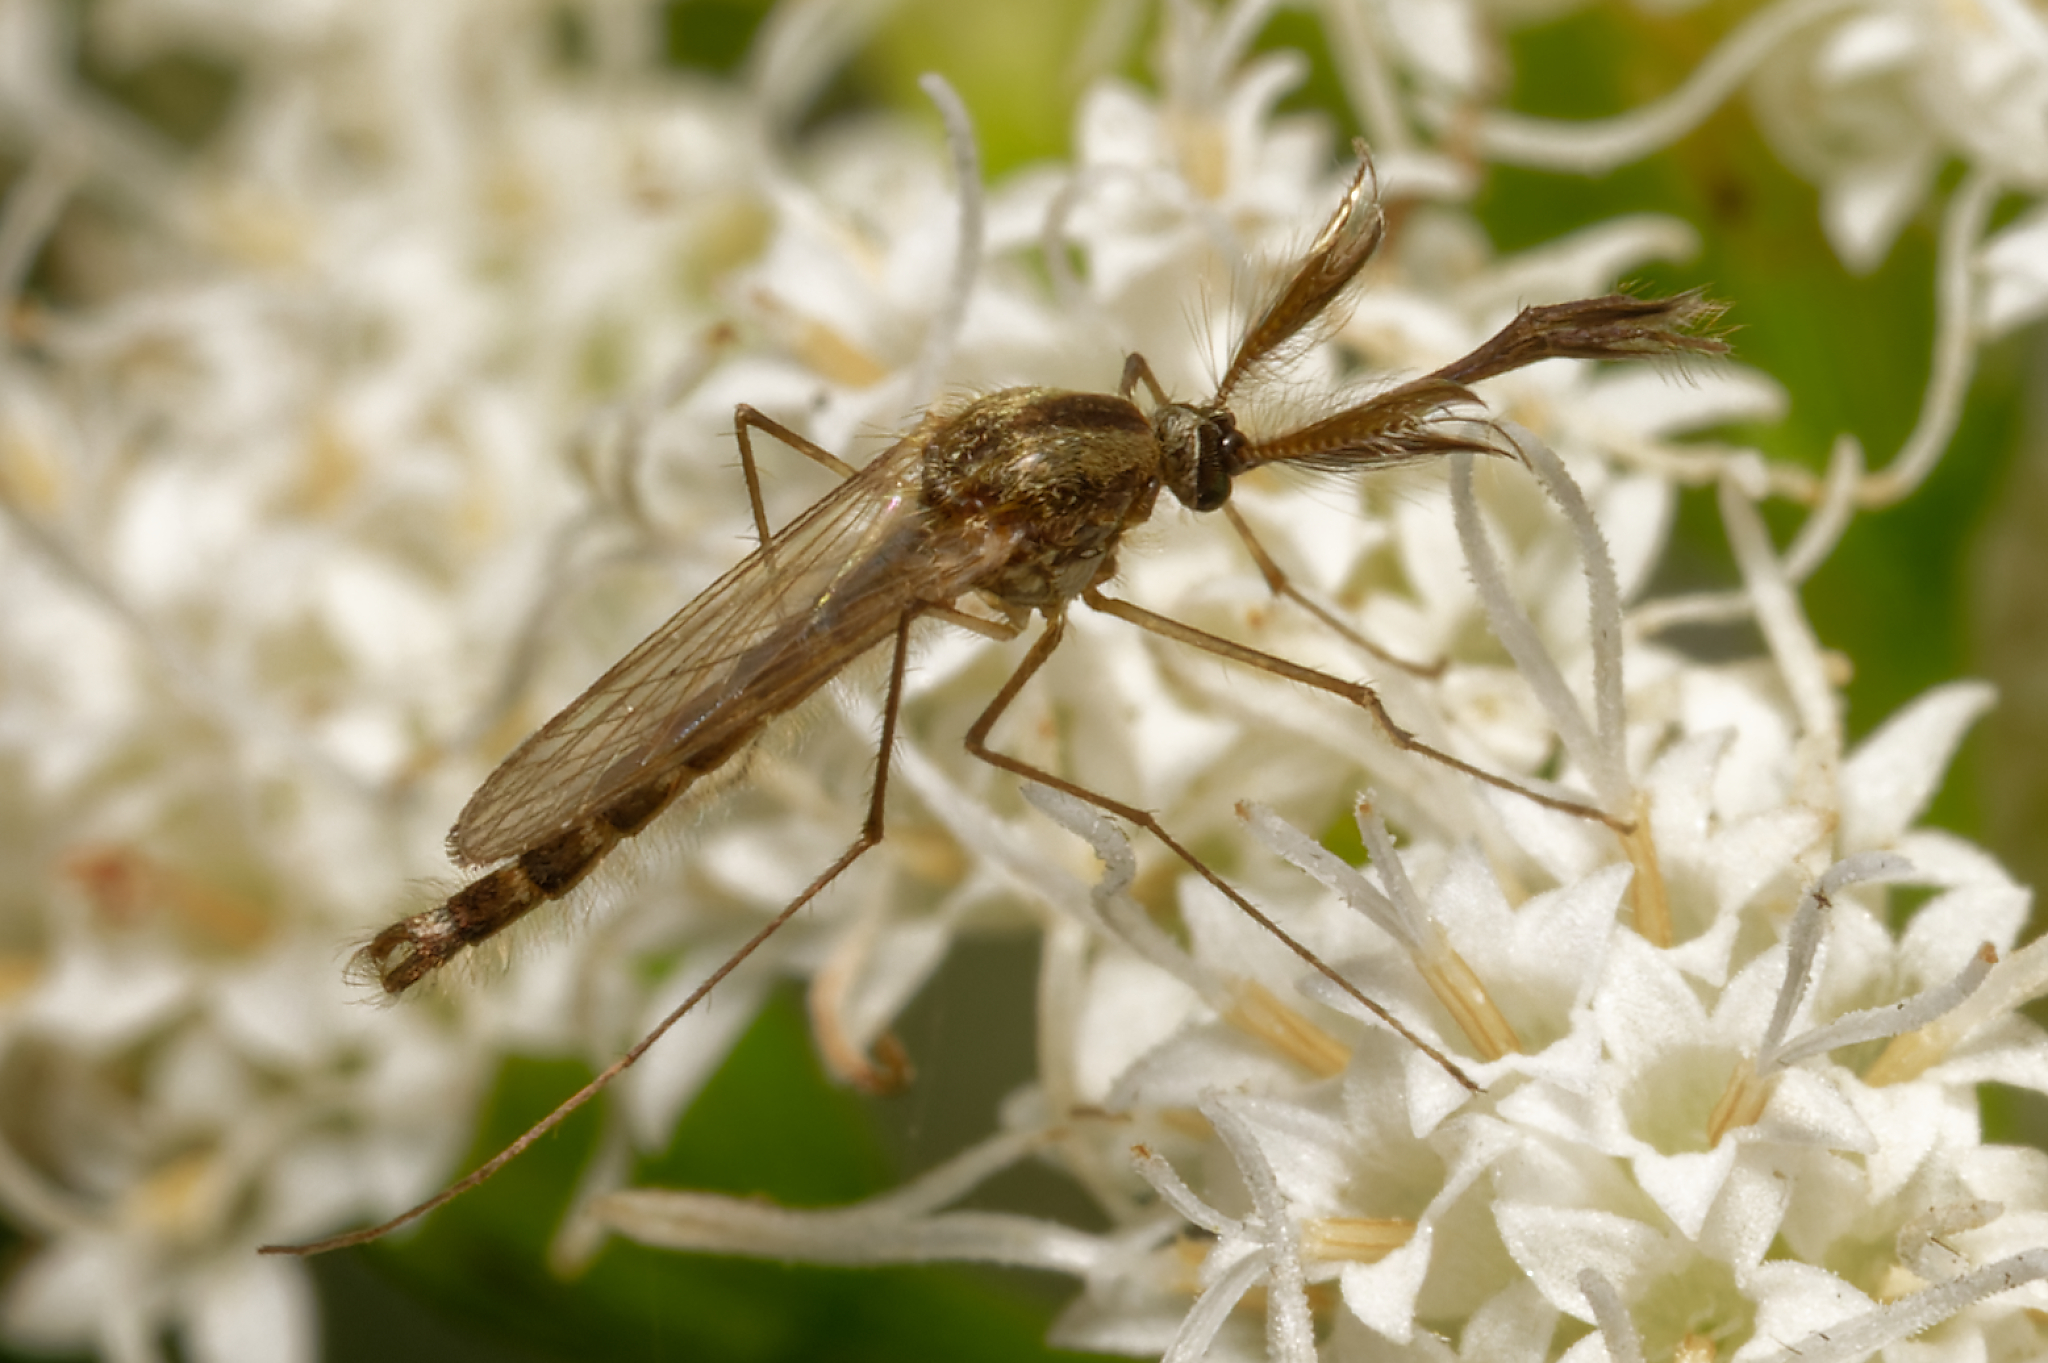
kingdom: Animalia
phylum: Arthropoda
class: Insecta
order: Diptera
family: Culicidae
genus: Aedes
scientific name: Aedes trivittatus
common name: Plains floodwater mosquito
